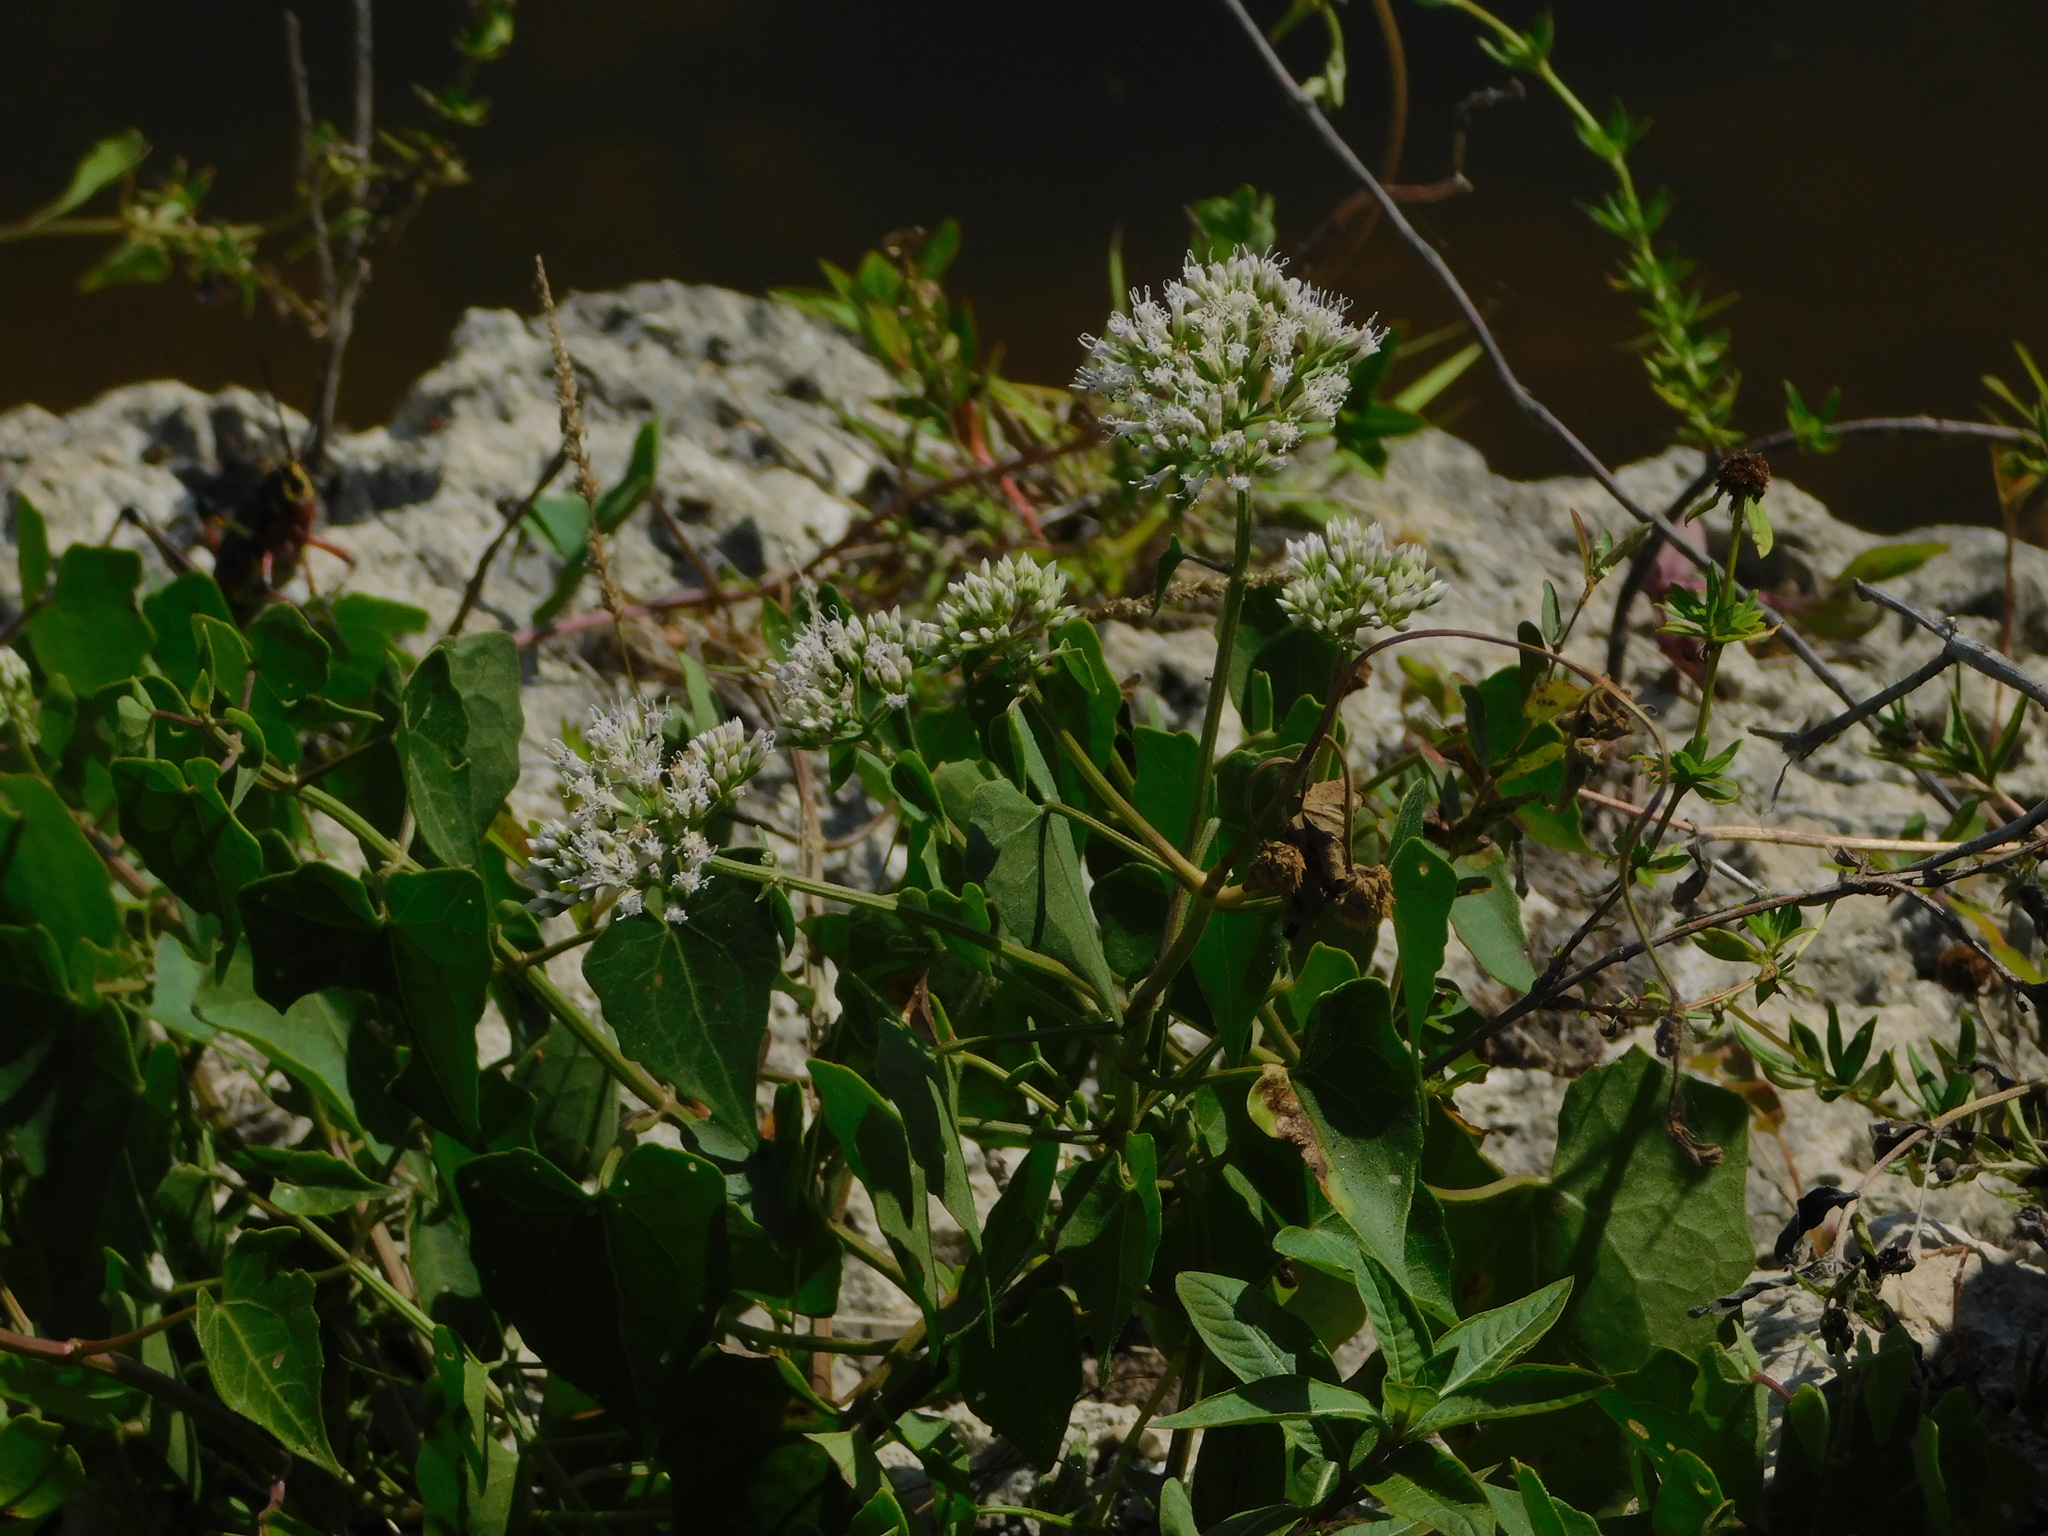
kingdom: Plantae
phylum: Tracheophyta
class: Magnoliopsida
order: Asterales
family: Asteraceae
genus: Mikania
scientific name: Mikania scandens
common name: Climbing hempvine
